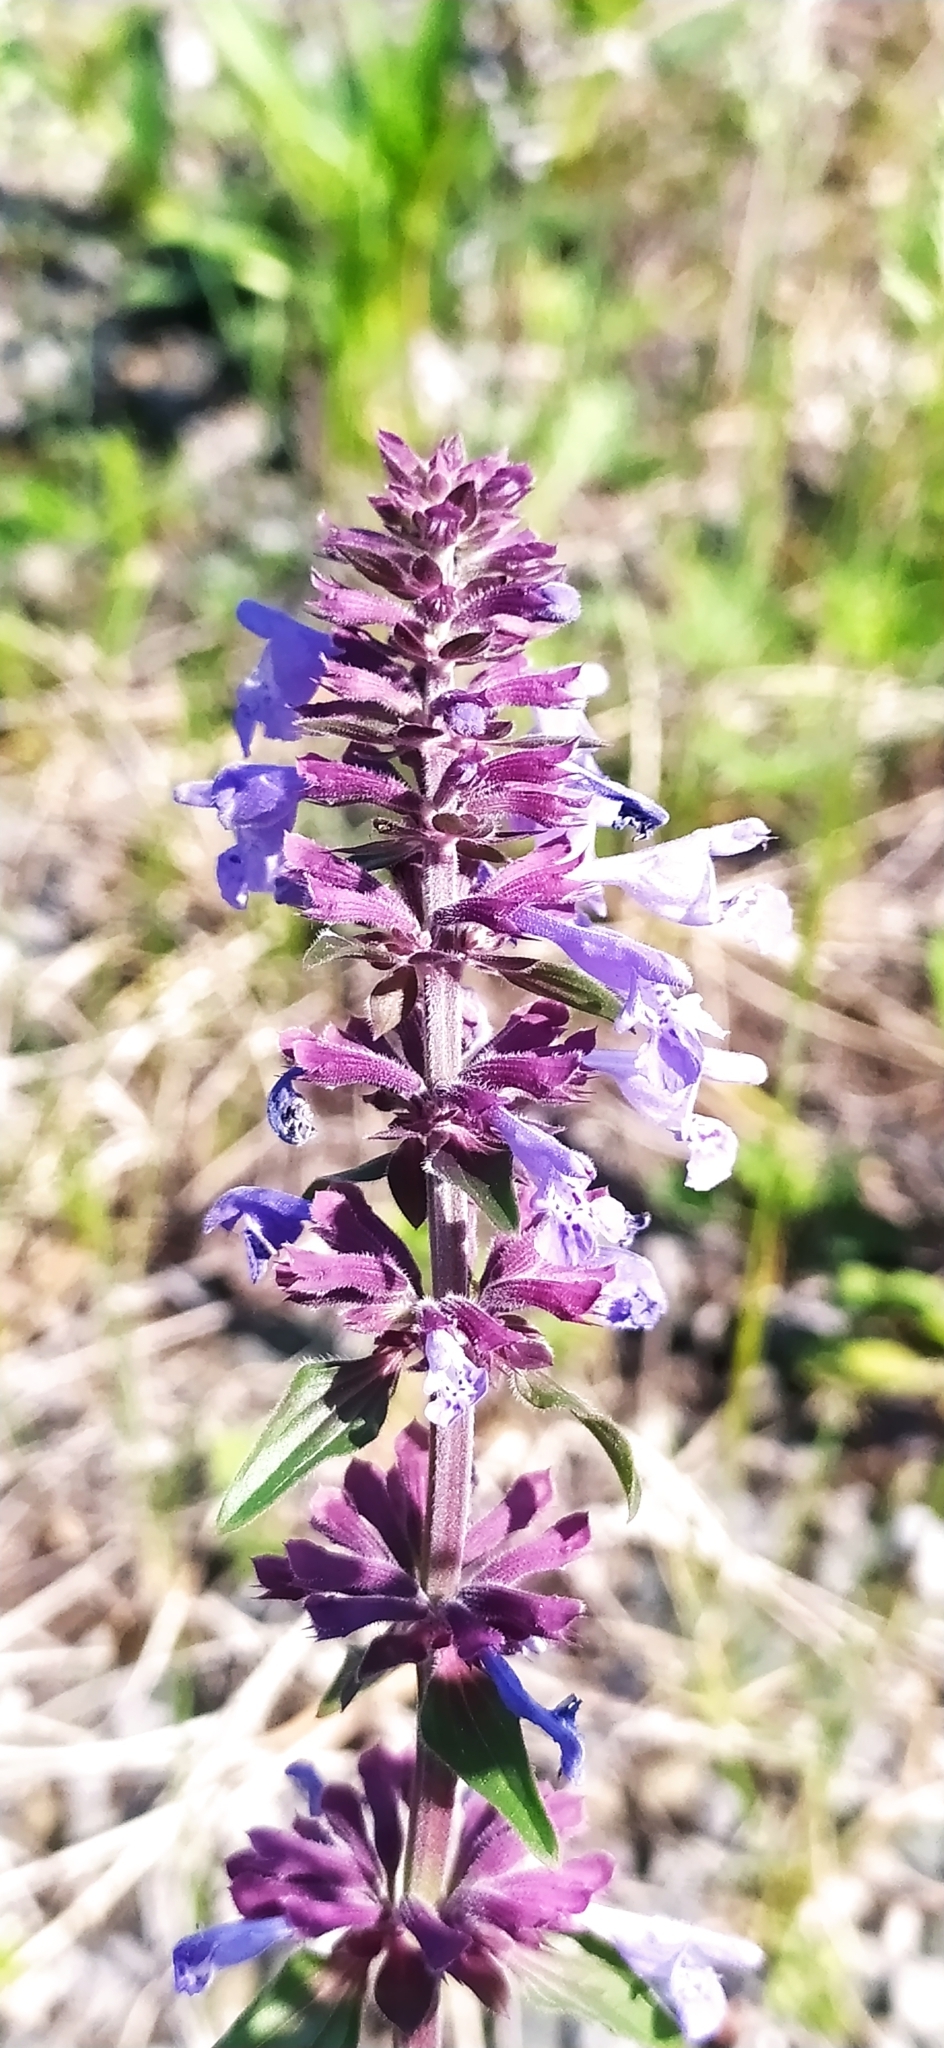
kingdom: Plantae
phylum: Tracheophyta
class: Magnoliopsida
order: Lamiales
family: Lamiaceae
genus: Dracocephalum
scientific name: Dracocephalum nutans
